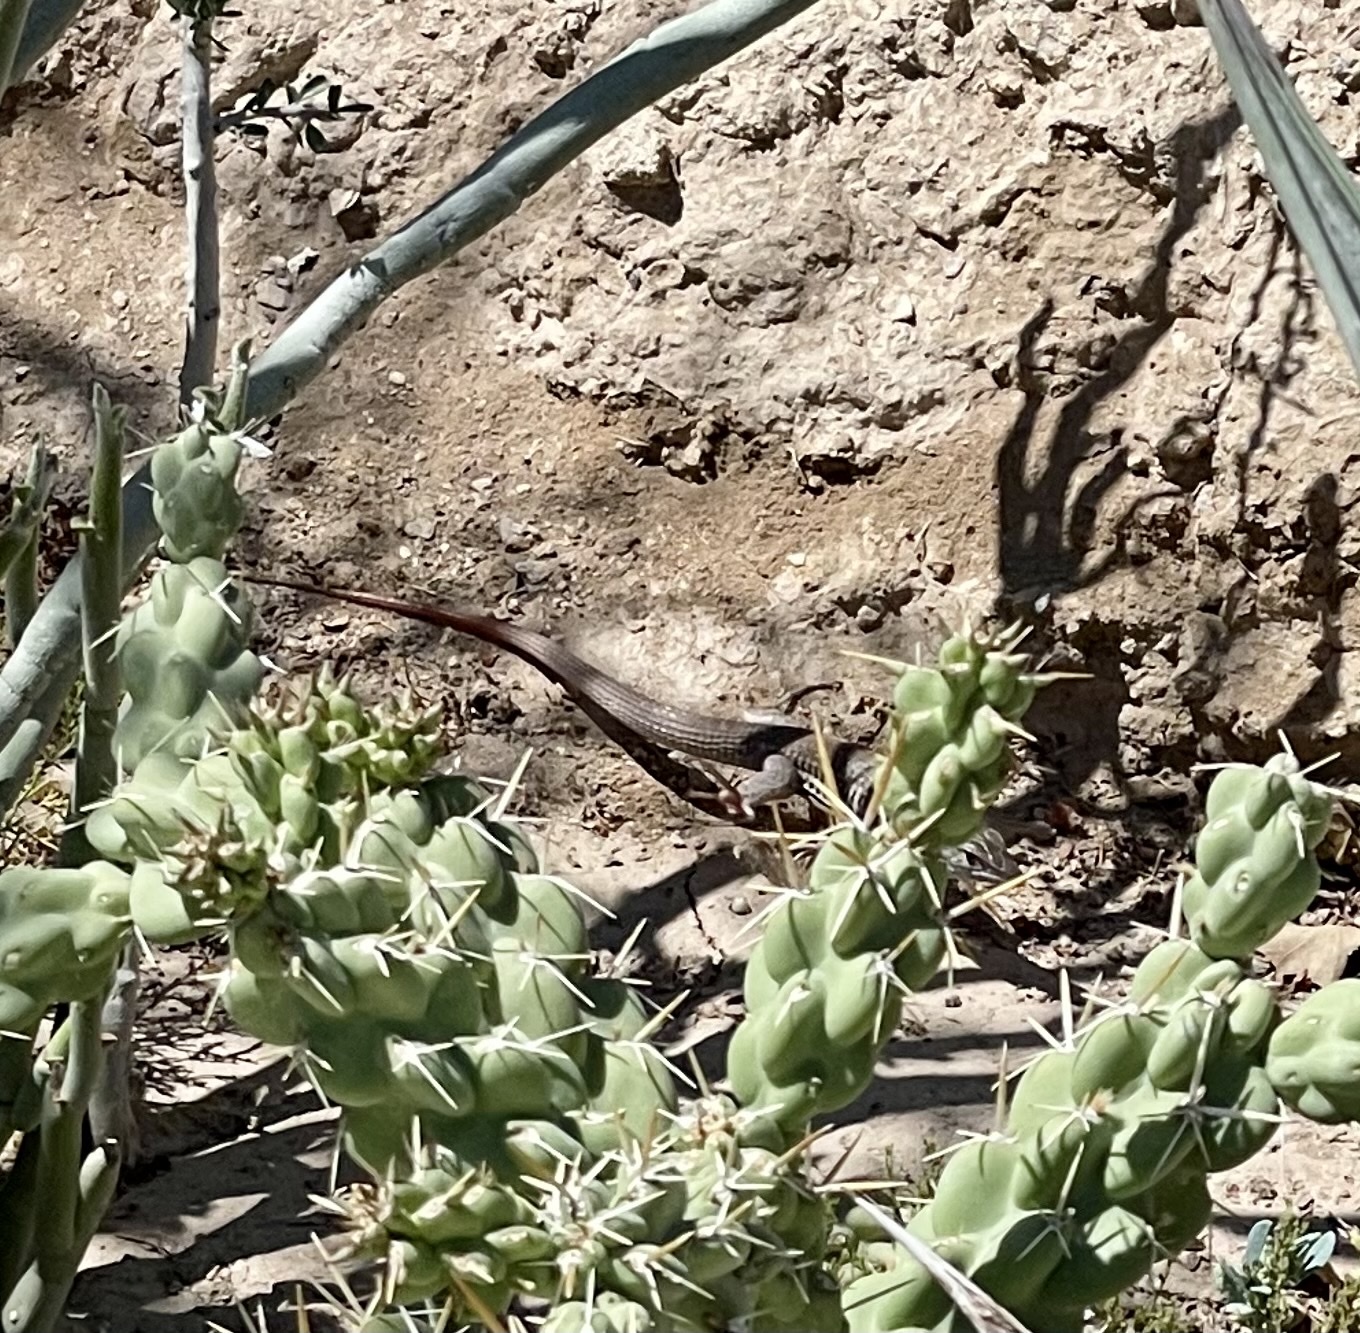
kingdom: Animalia
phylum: Chordata
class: Squamata
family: Teiidae
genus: Aspidoscelis
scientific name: Aspidoscelis tigris
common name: Tiger whiptail
